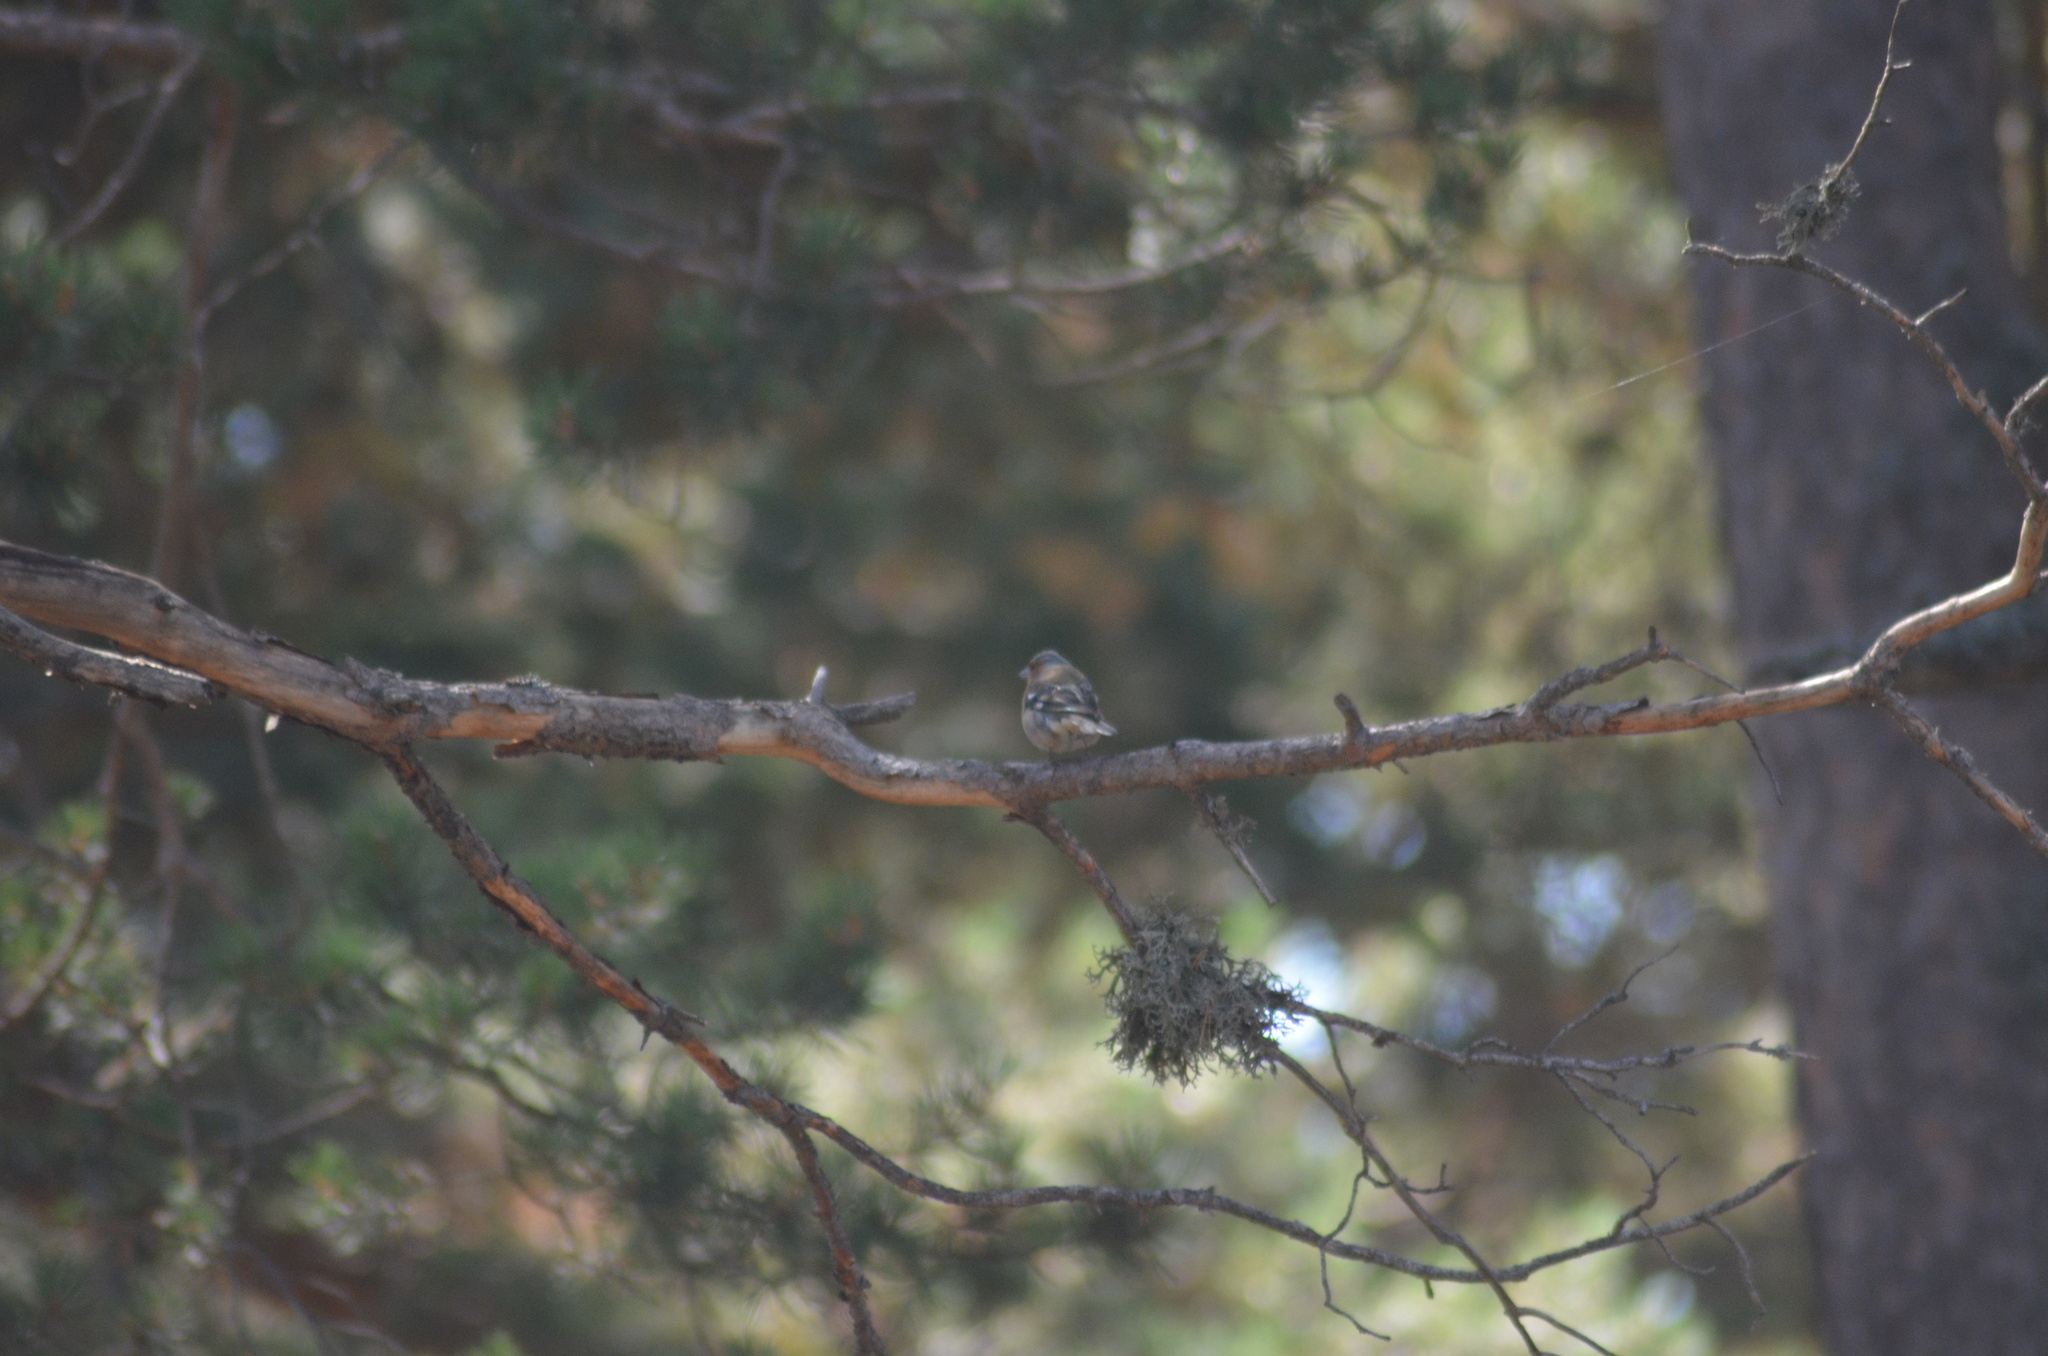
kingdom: Animalia
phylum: Chordata
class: Aves
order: Passeriformes
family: Fringillidae
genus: Fringilla
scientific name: Fringilla coelebs
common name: Common chaffinch
